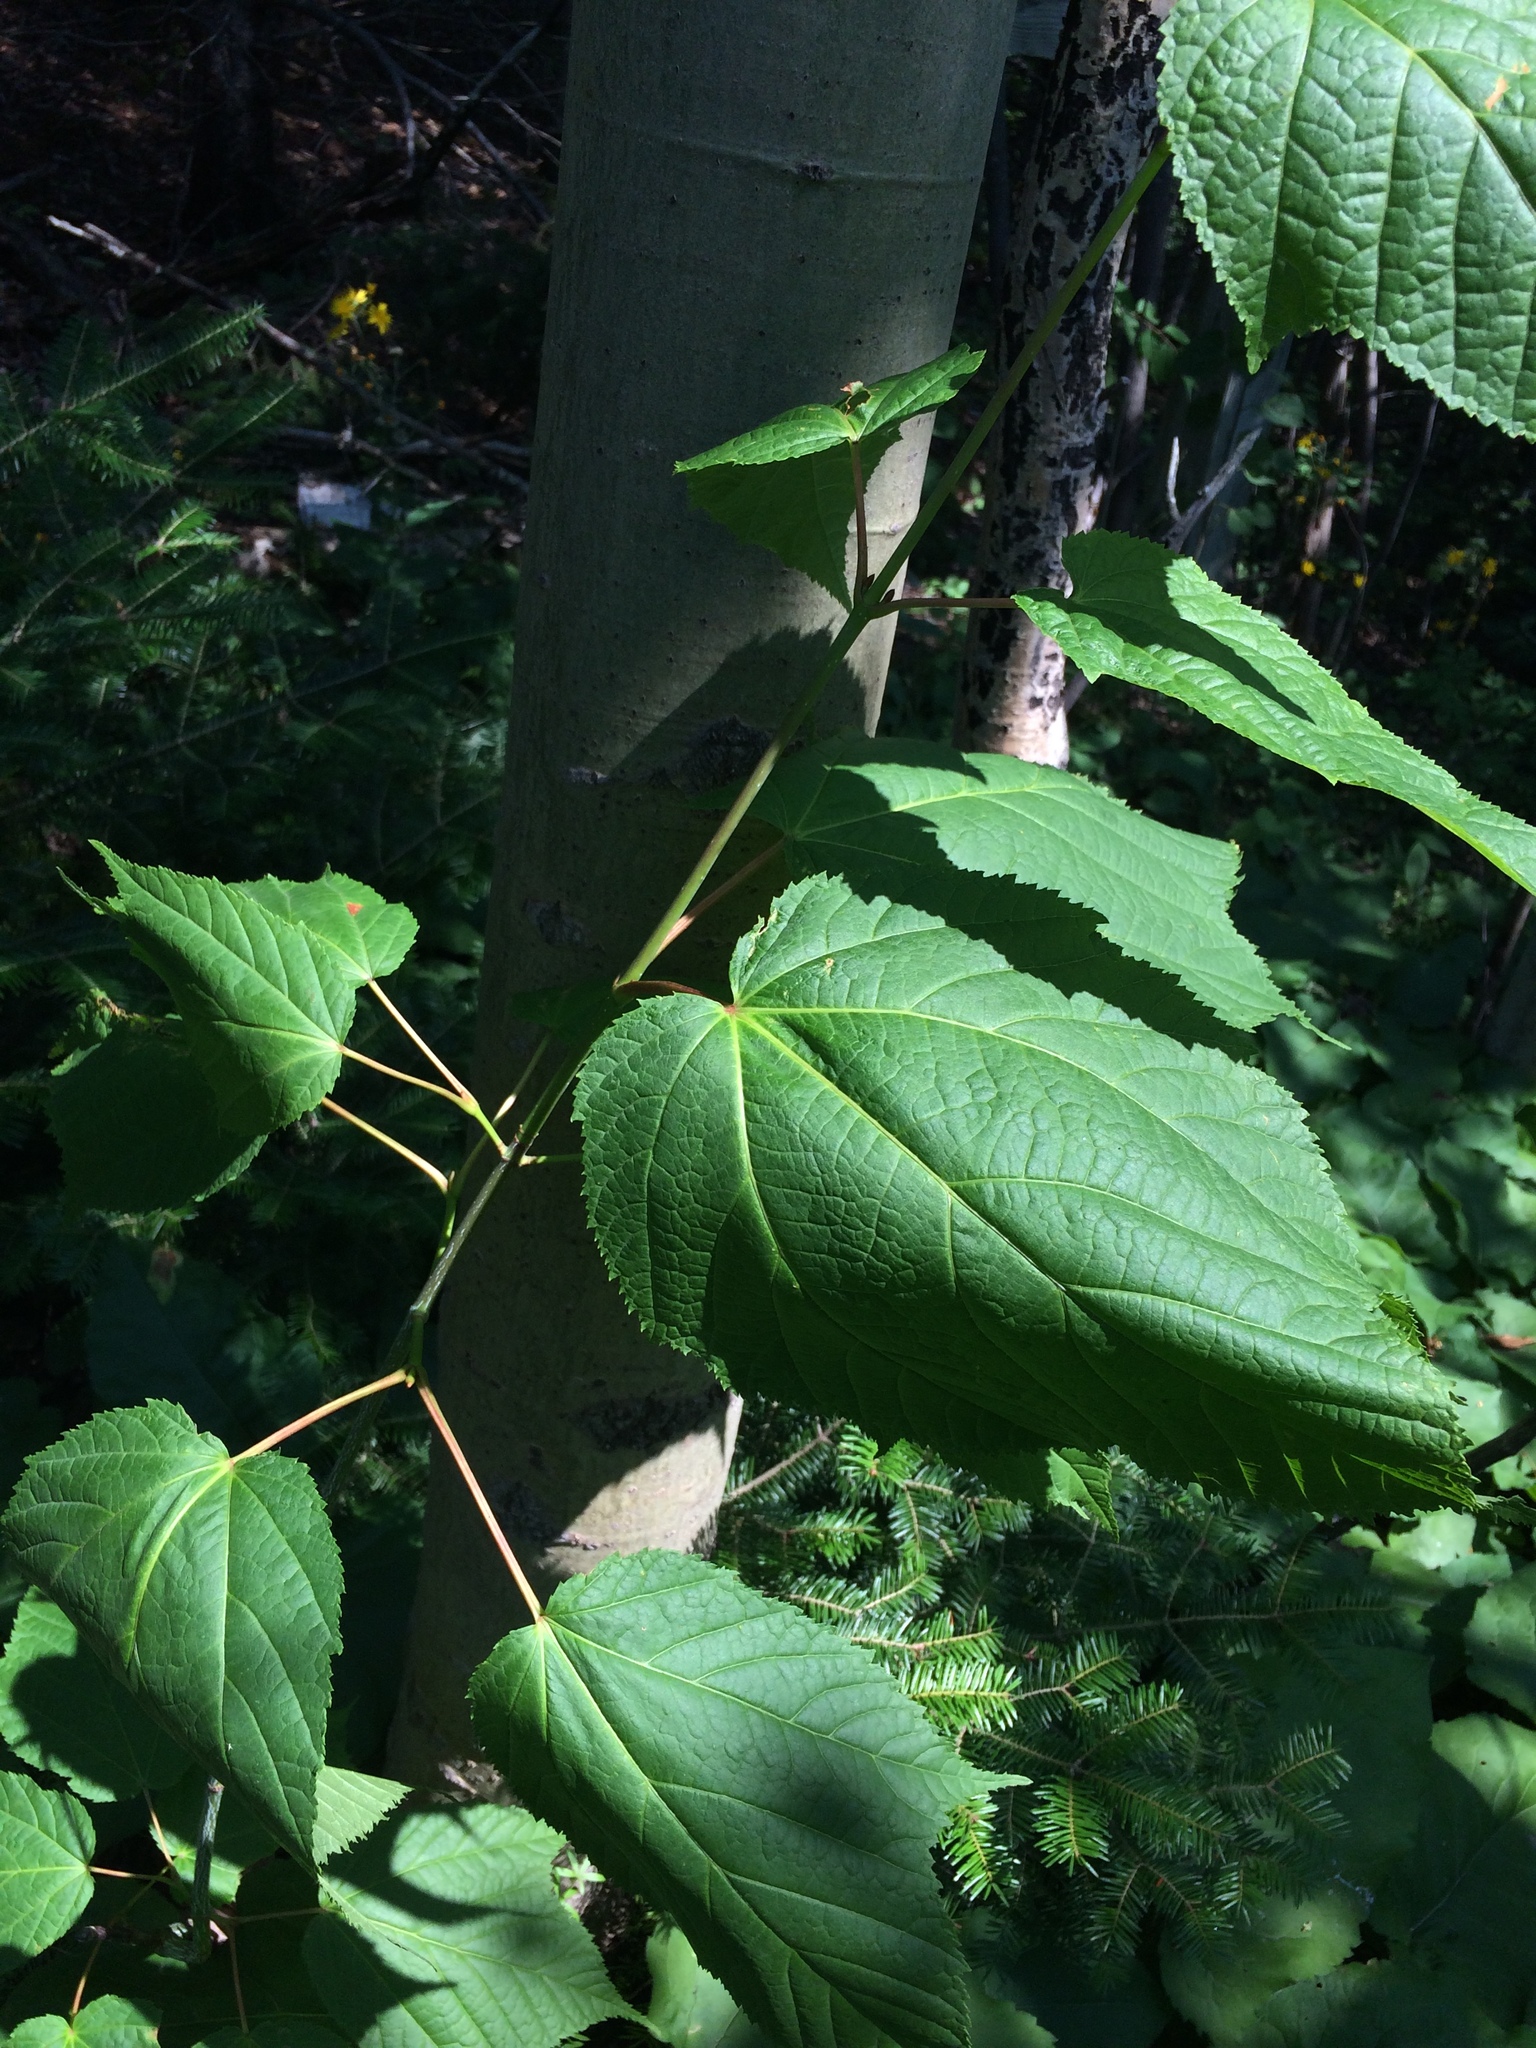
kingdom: Plantae
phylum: Tracheophyta
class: Magnoliopsida
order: Sapindales
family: Sapindaceae
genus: Acer
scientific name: Acer pensylvanicum
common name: Moosewood
